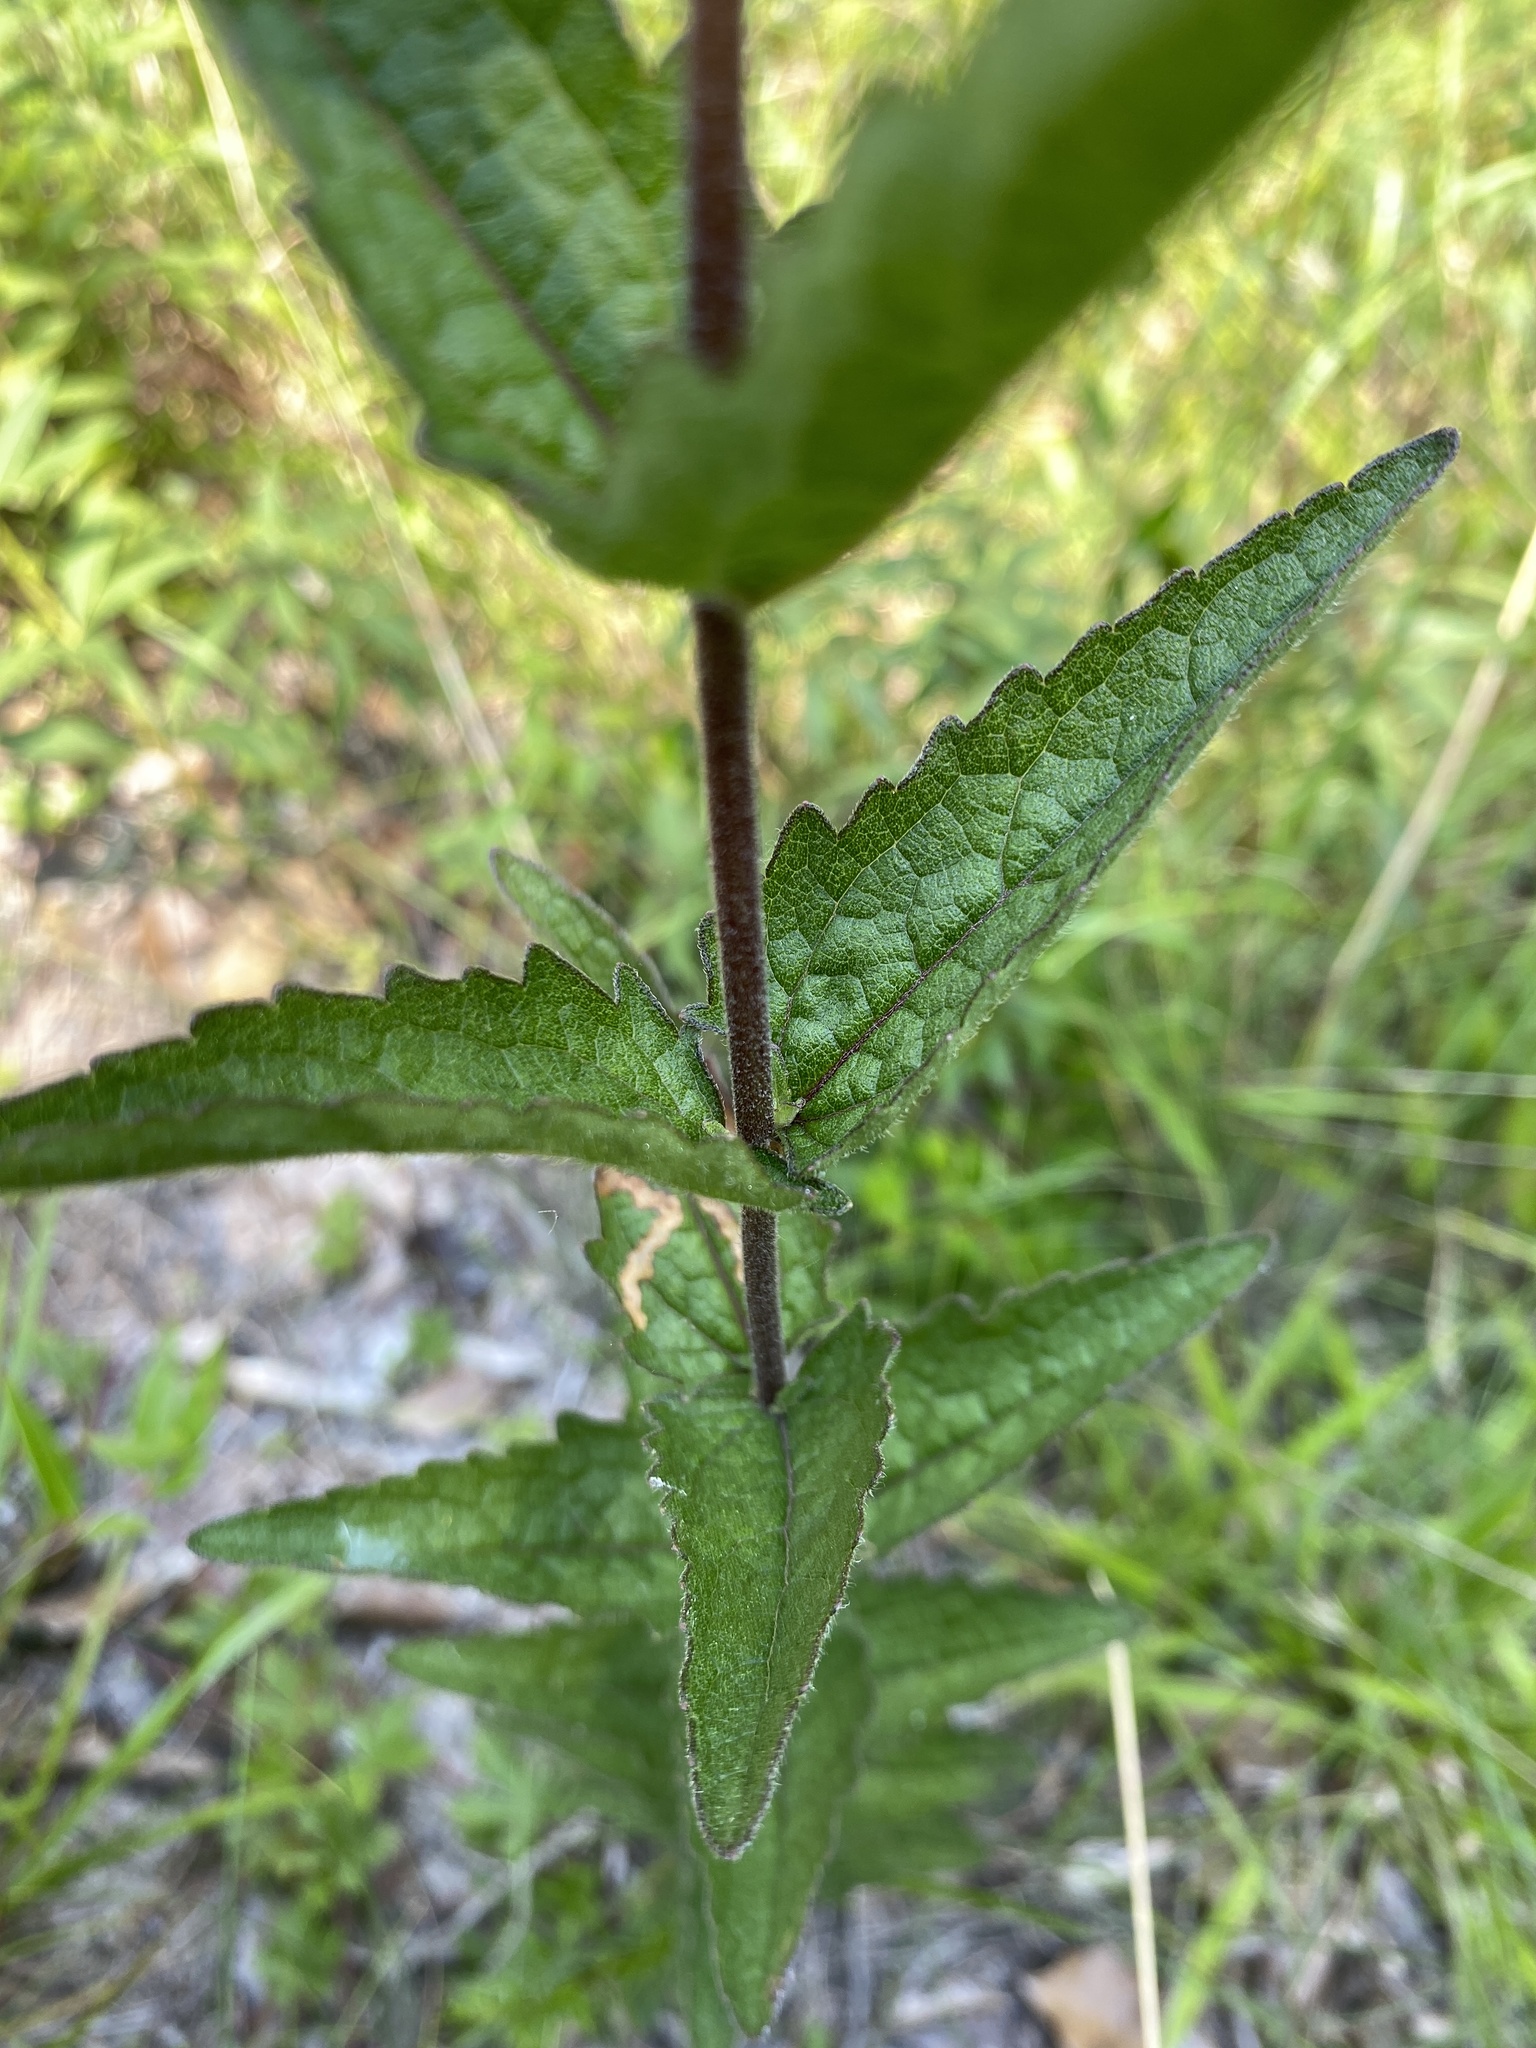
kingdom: Plantae
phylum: Tracheophyta
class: Magnoliopsida
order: Asterales
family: Asteraceae
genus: Eupatorium
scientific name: Eupatorium pilosum
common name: Rough boneset
